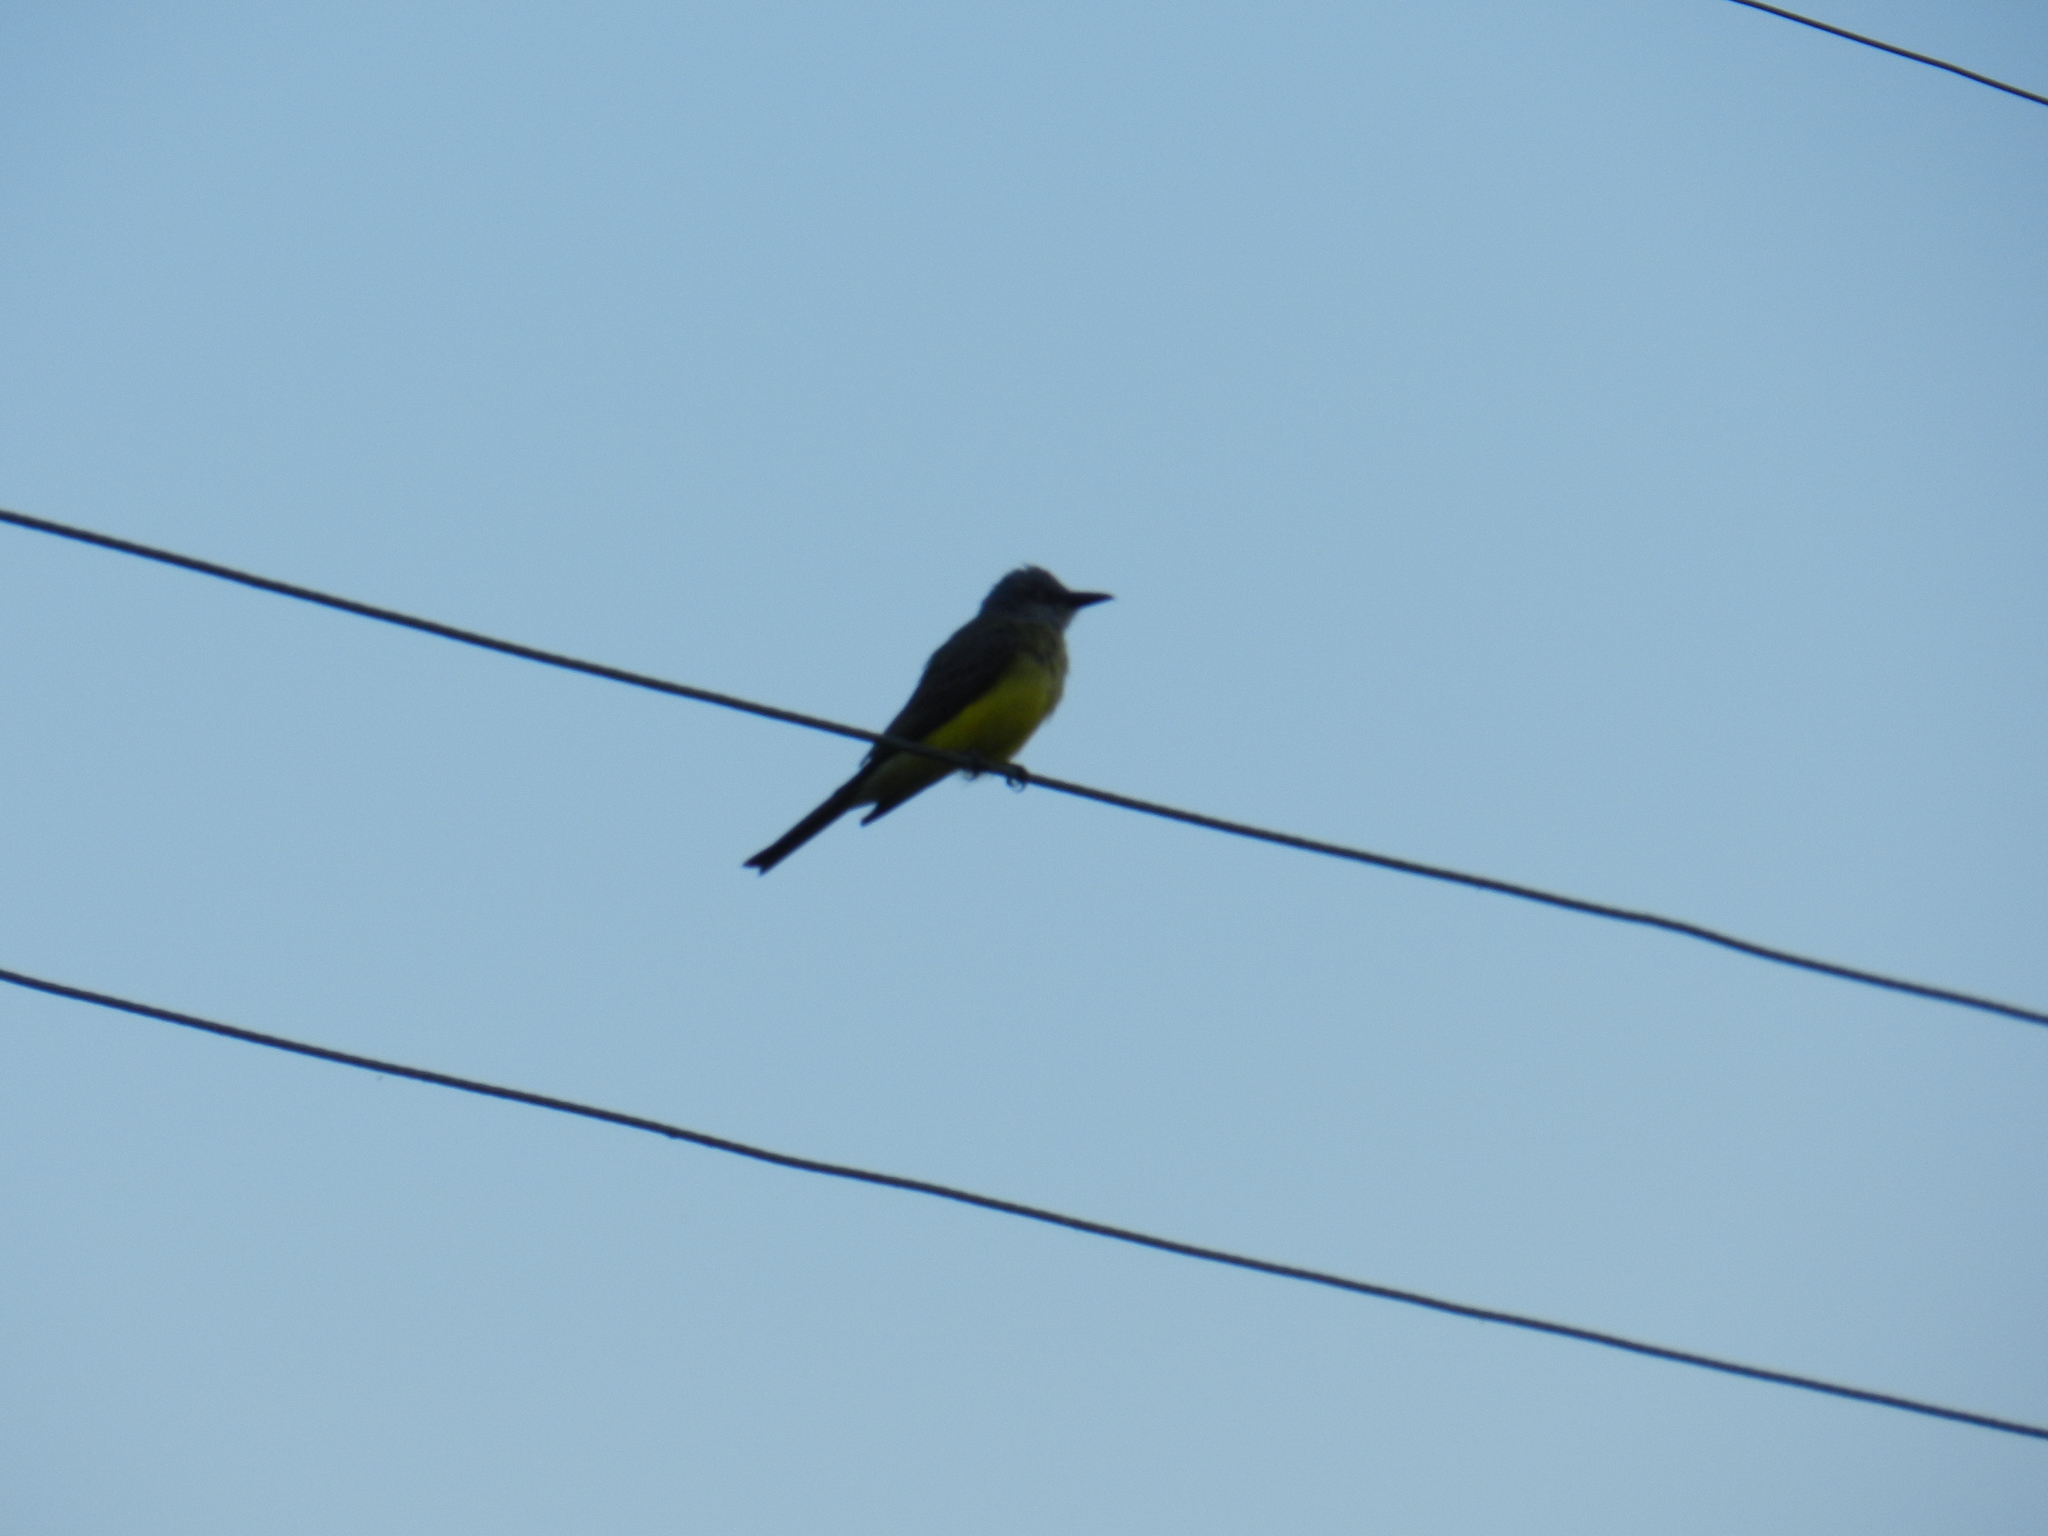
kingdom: Animalia
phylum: Chordata
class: Aves
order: Passeriformes
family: Tyrannidae
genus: Tyrannus
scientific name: Tyrannus melancholicus
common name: Tropical kingbird
